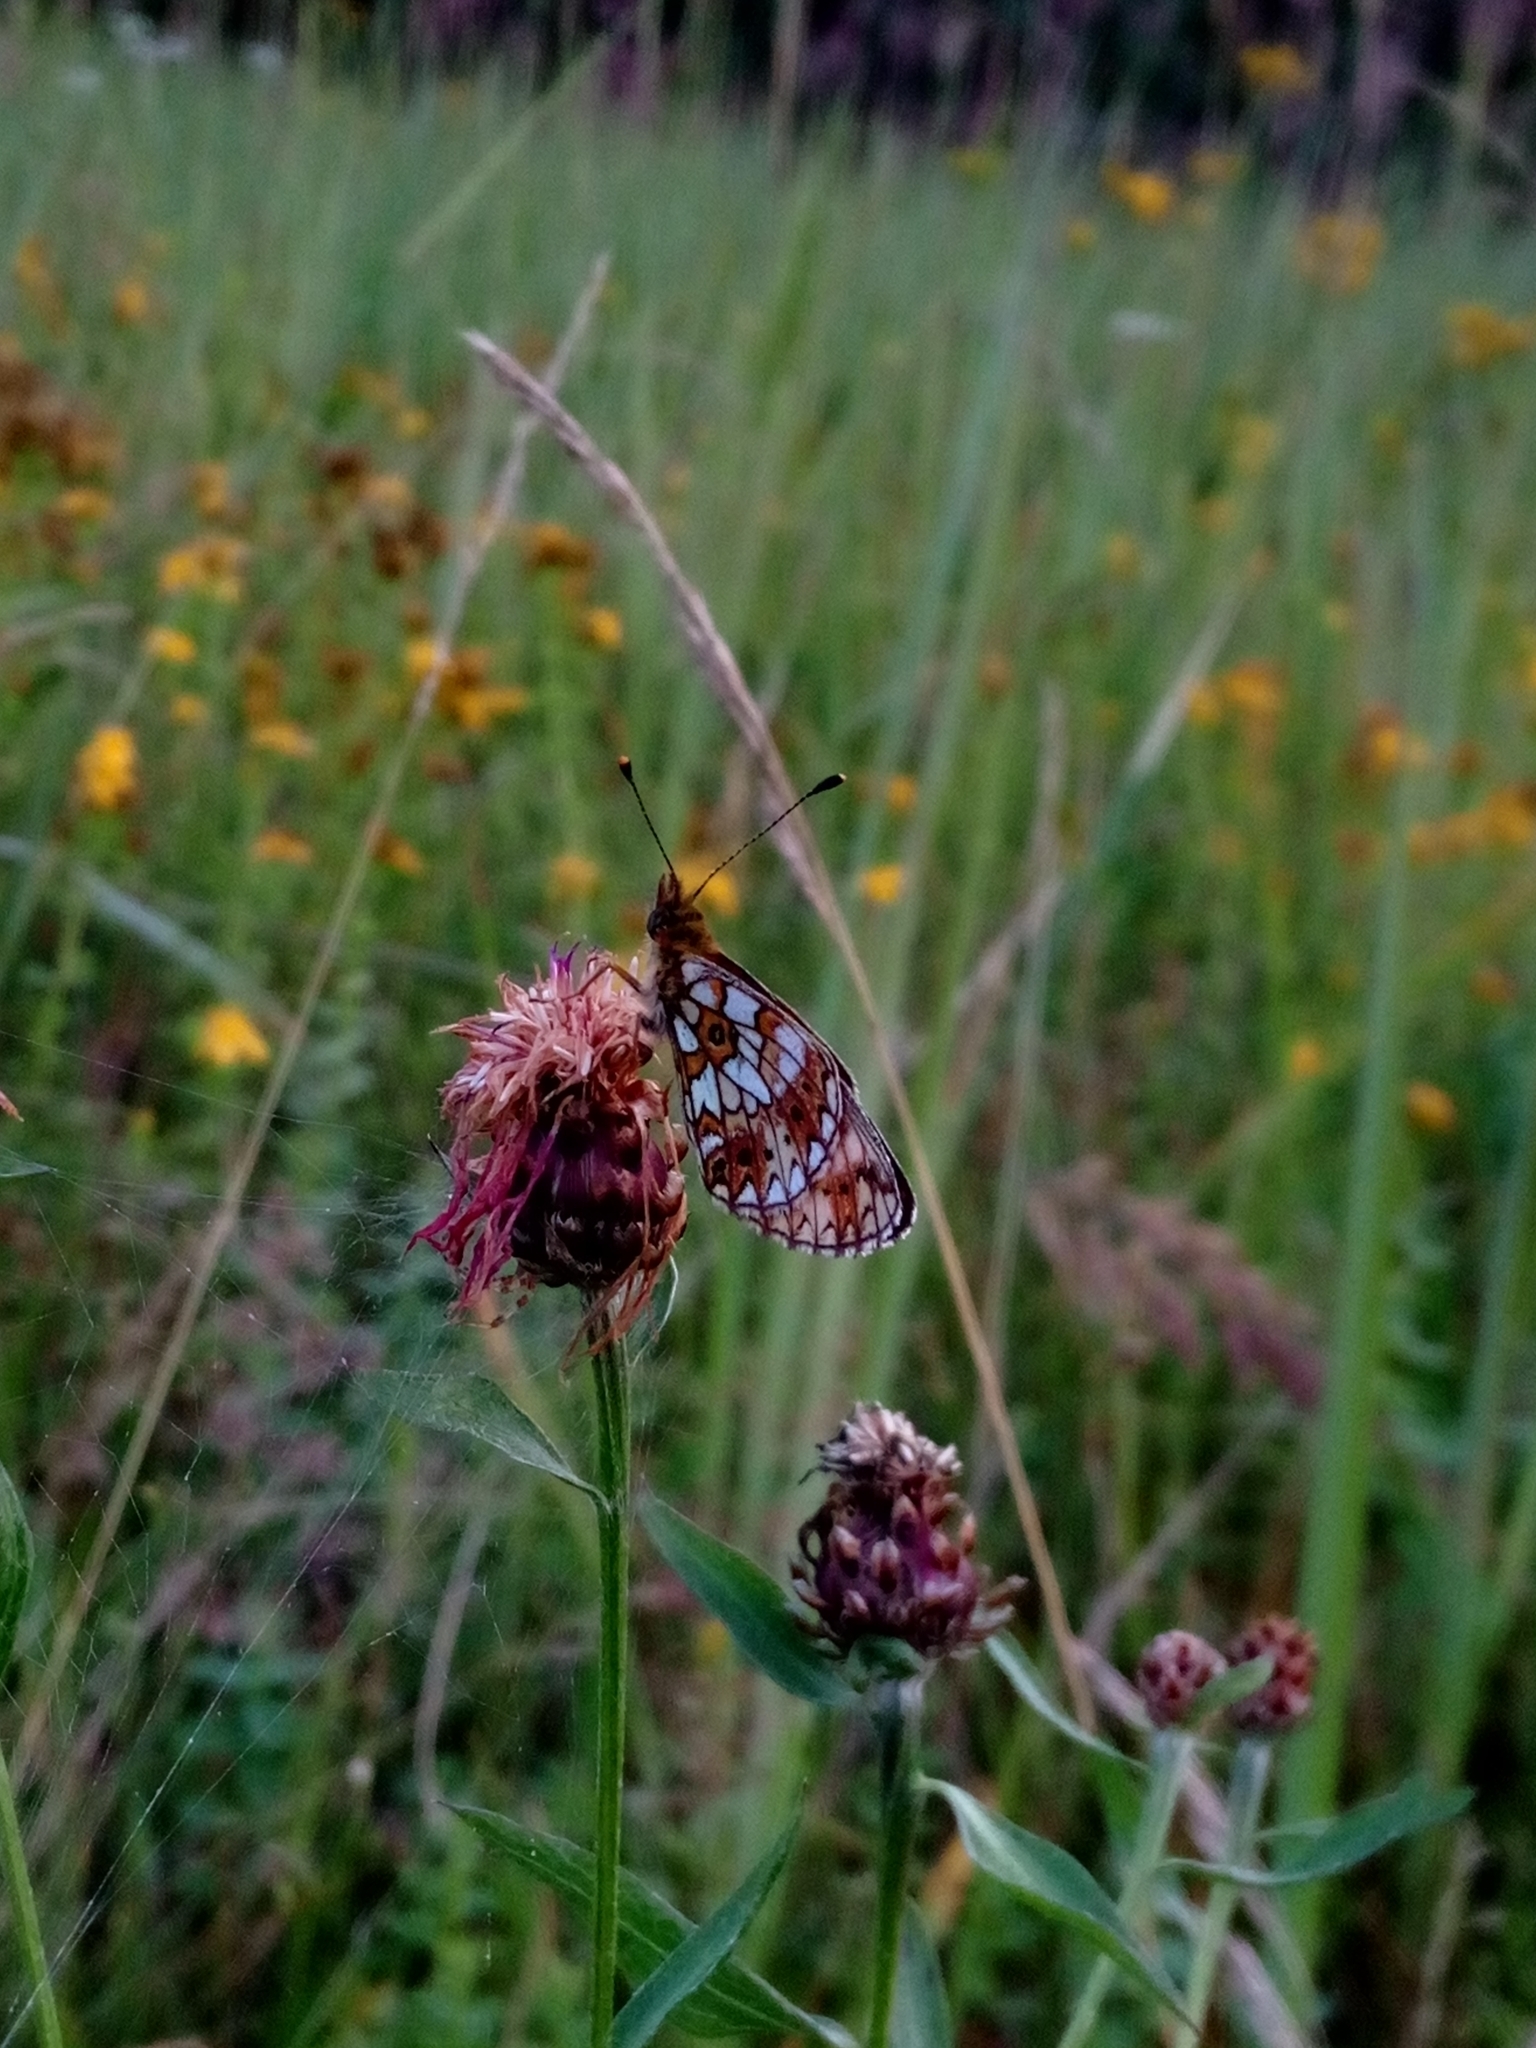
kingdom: Animalia
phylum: Arthropoda
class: Insecta
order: Lepidoptera
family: Nymphalidae
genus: Boloria
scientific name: Boloria selene
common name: Small pearl-bordered fritillary
